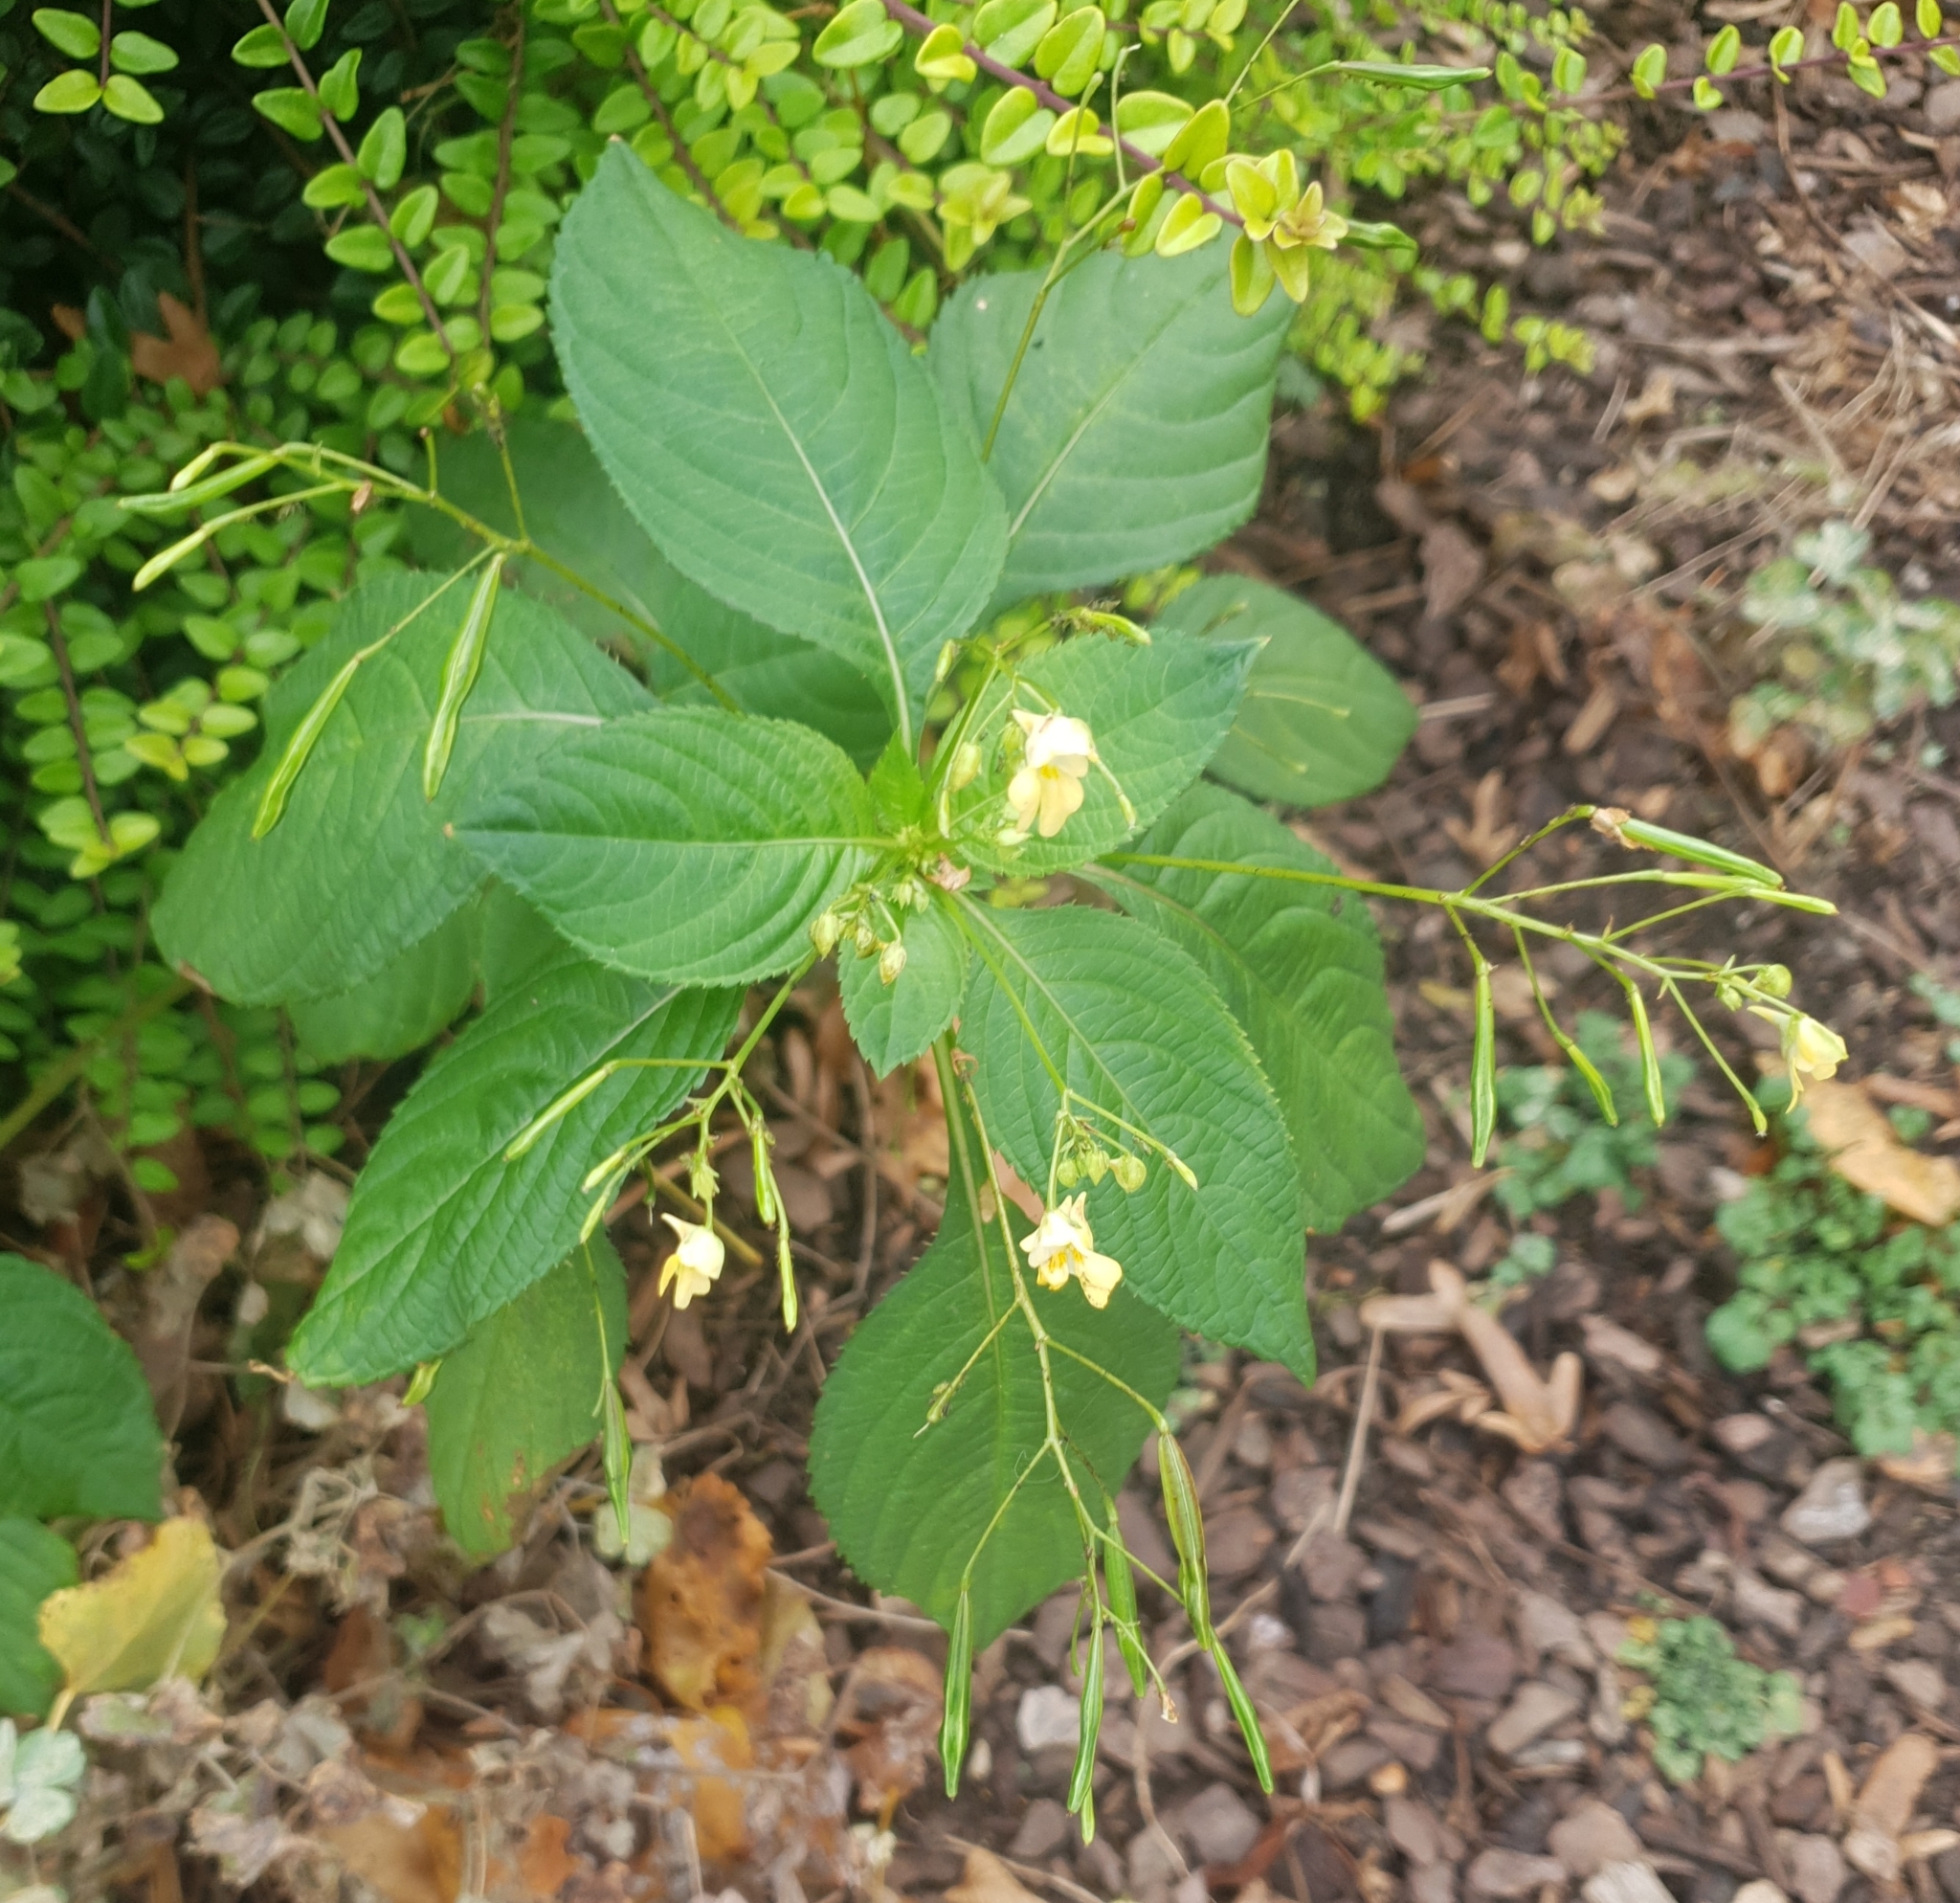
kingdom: Plantae
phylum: Tracheophyta
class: Magnoliopsida
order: Ericales
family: Balsaminaceae
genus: Impatiens
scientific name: Impatiens parviflora
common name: Small balsam
